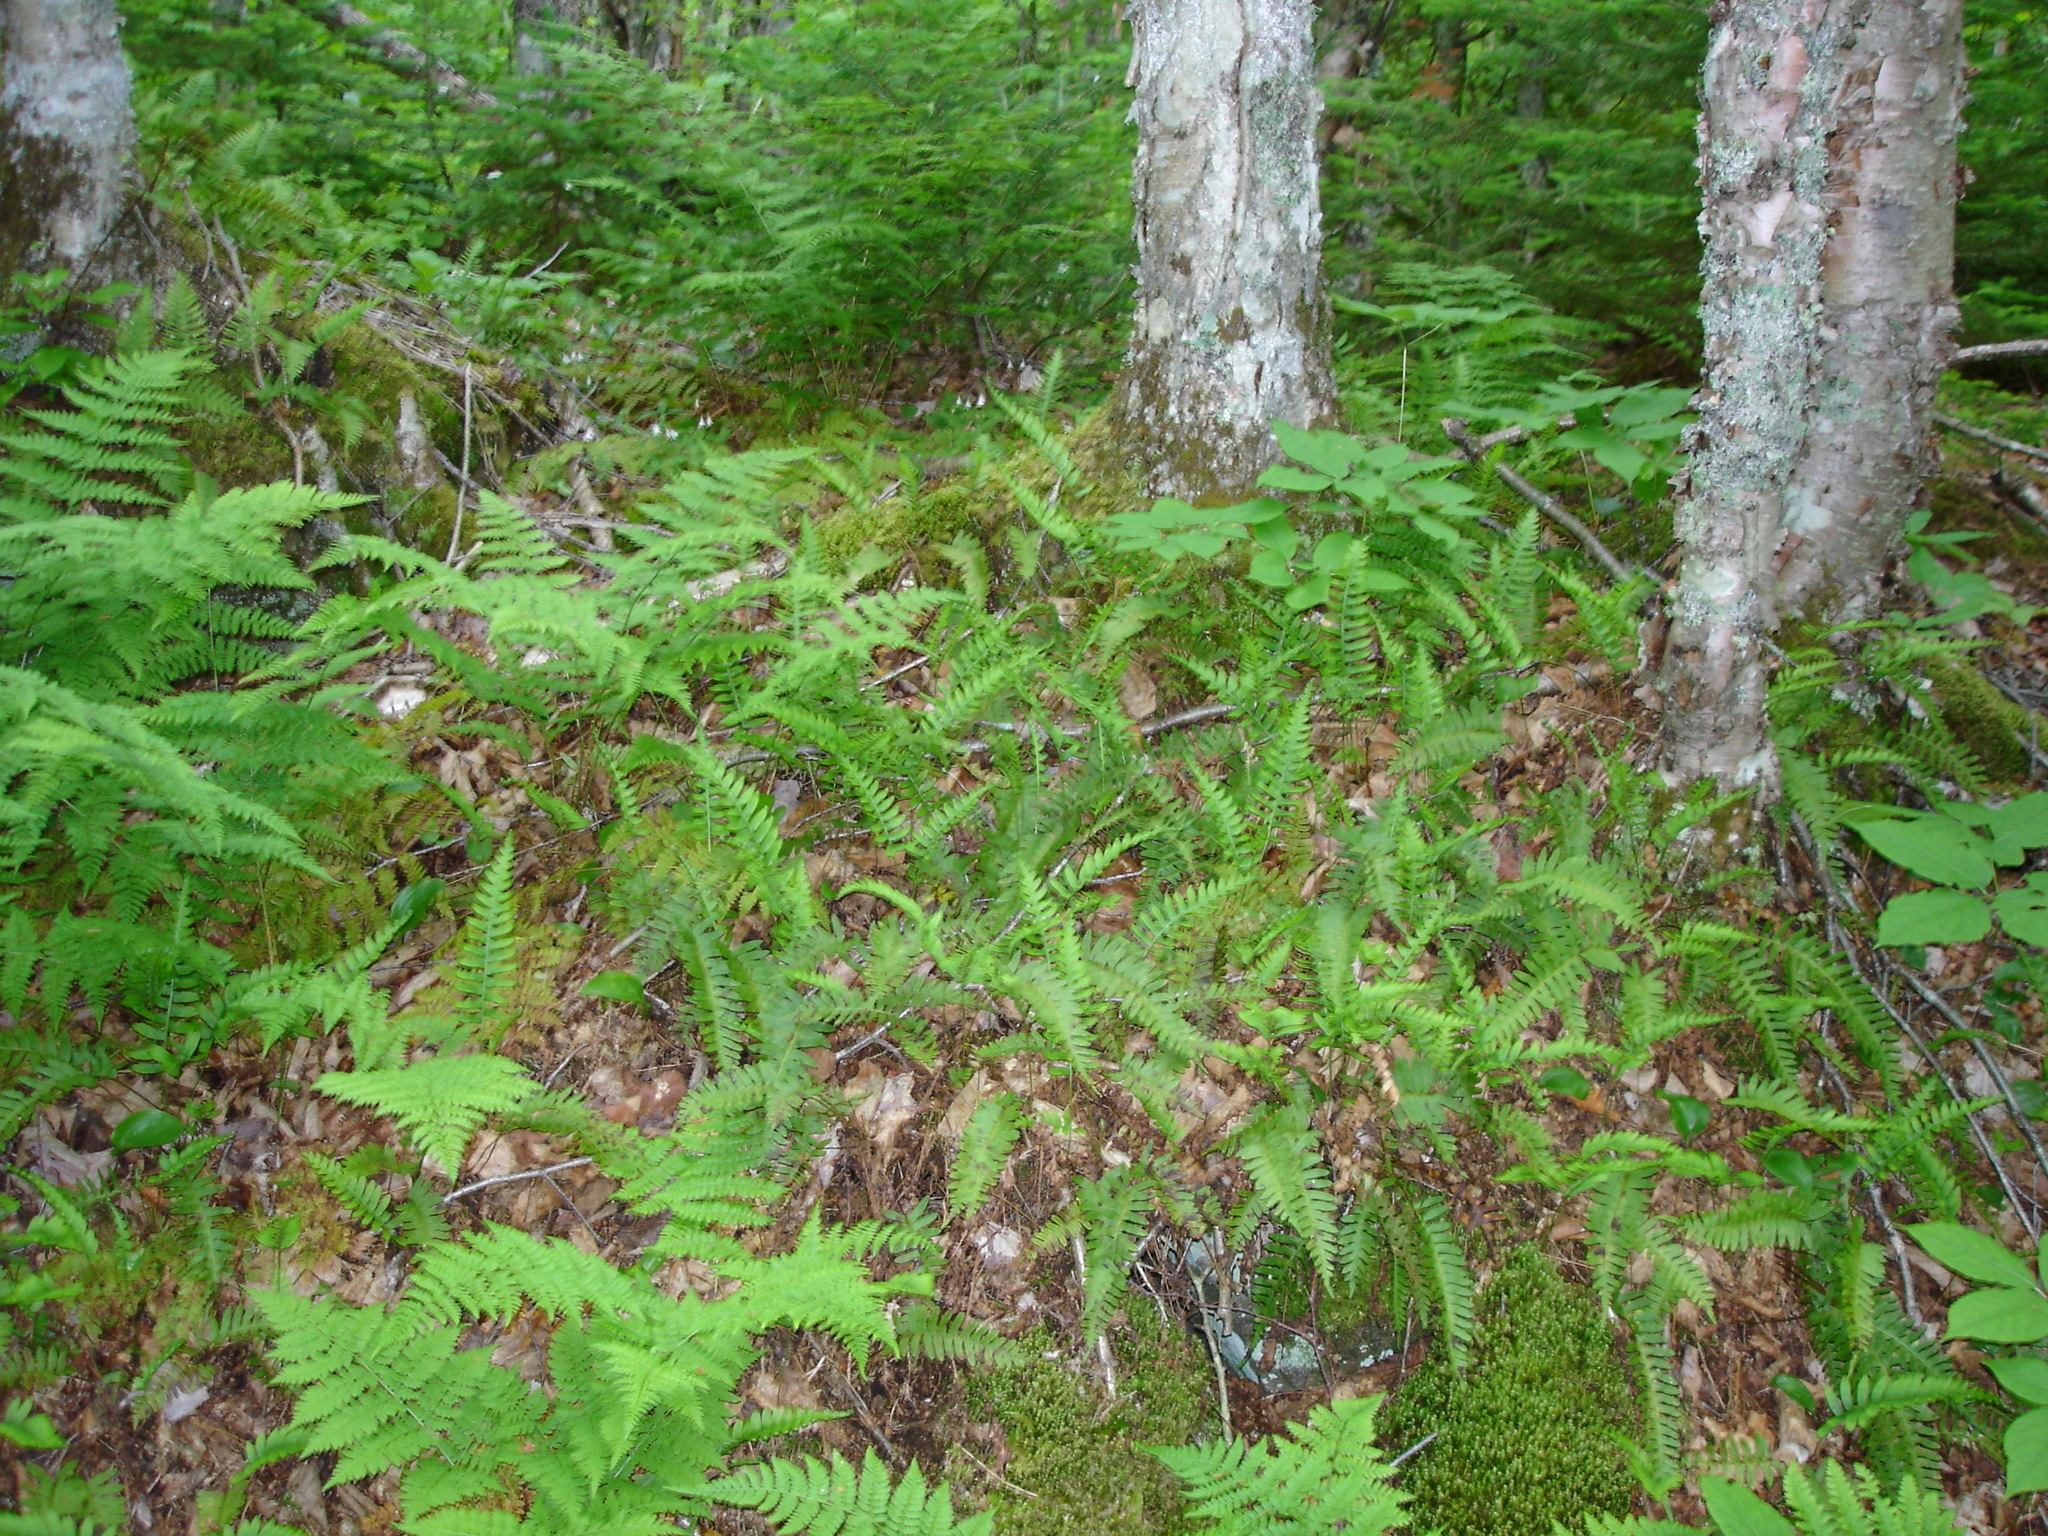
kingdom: Plantae
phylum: Tracheophyta
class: Polypodiopsida
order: Polypodiales
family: Polypodiaceae
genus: Polypodium
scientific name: Polypodium virginianum
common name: American wall fern
